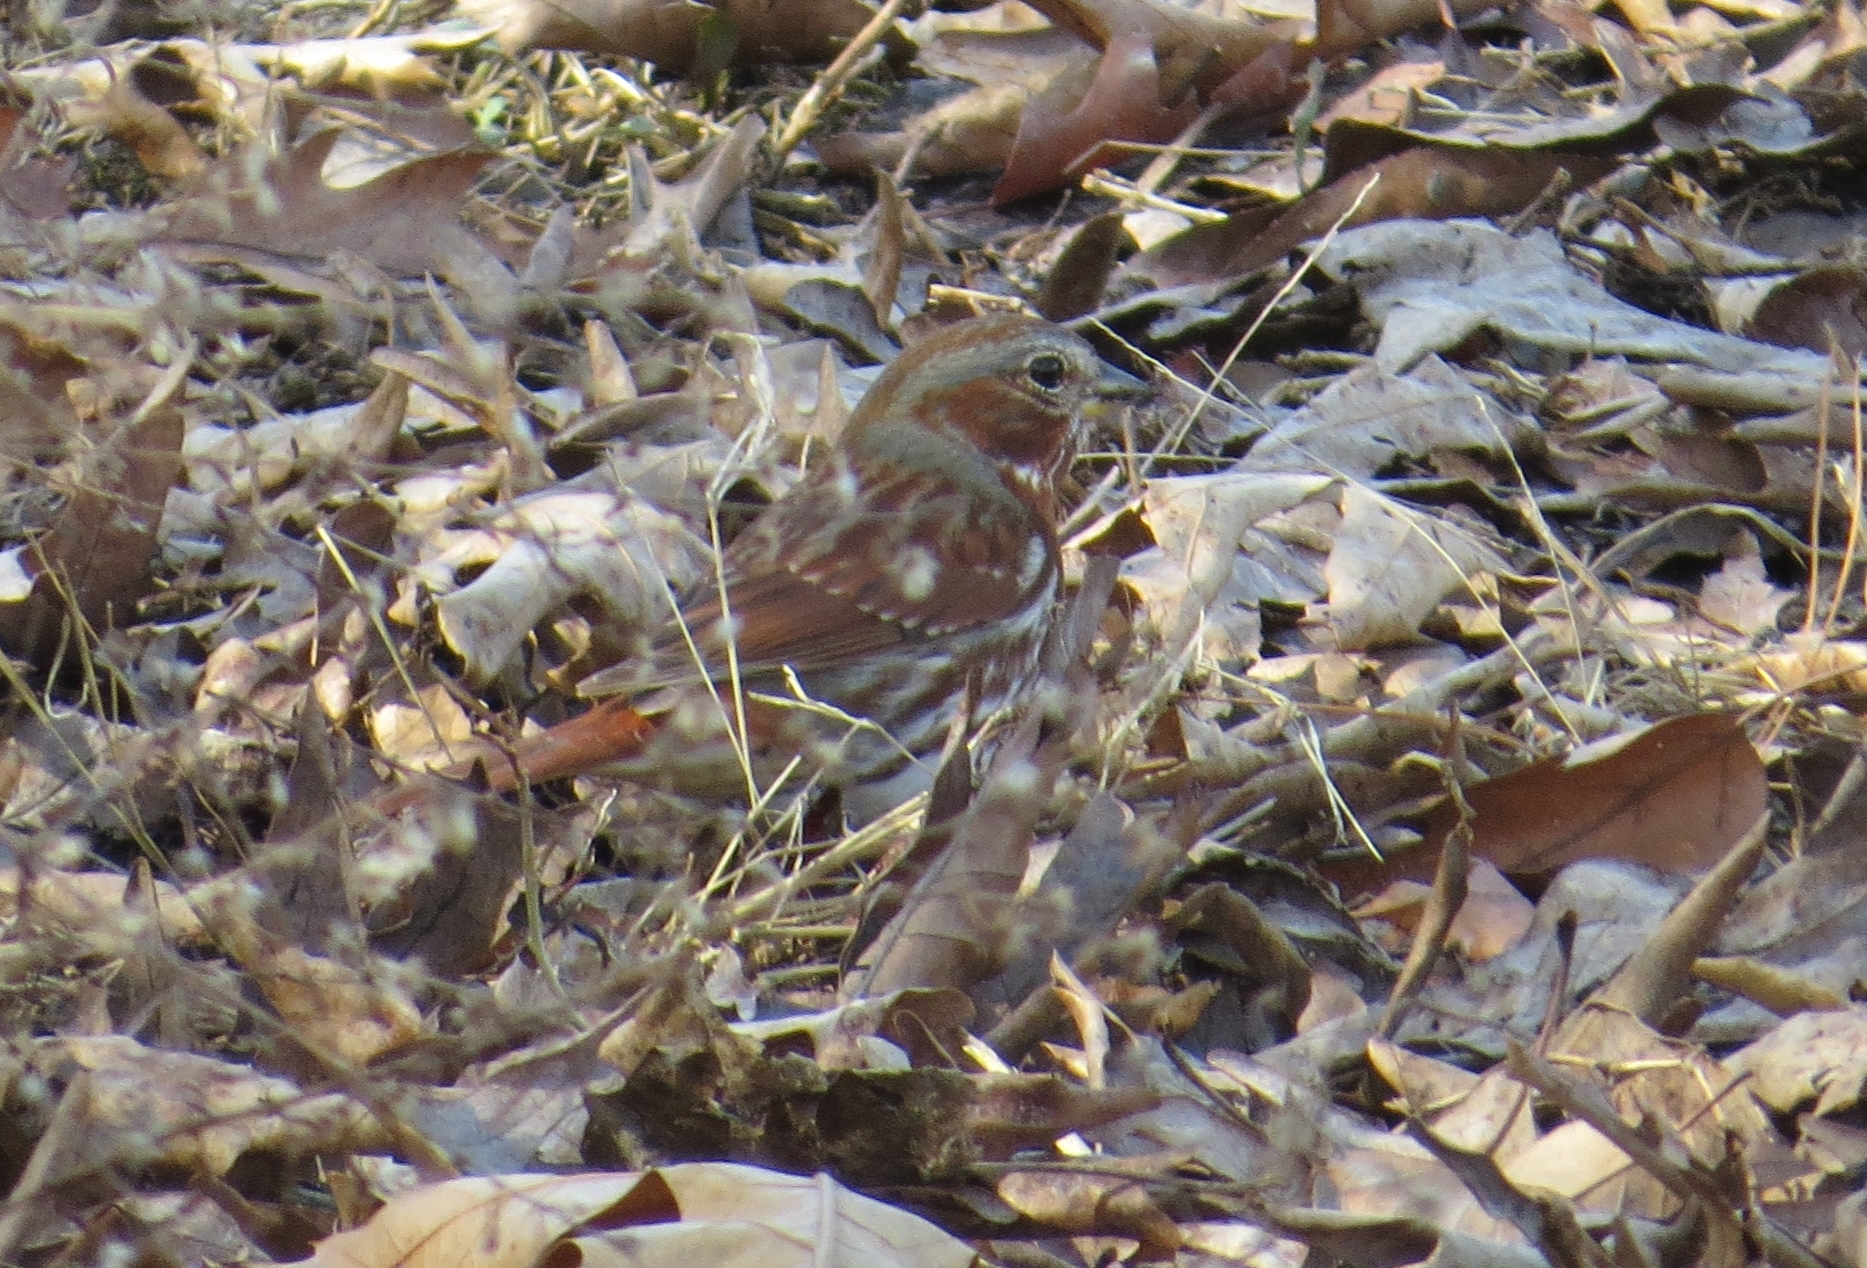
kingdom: Animalia
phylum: Chordata
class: Aves
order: Passeriformes
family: Passerellidae
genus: Passerella
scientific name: Passerella iliaca
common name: Fox sparrow
